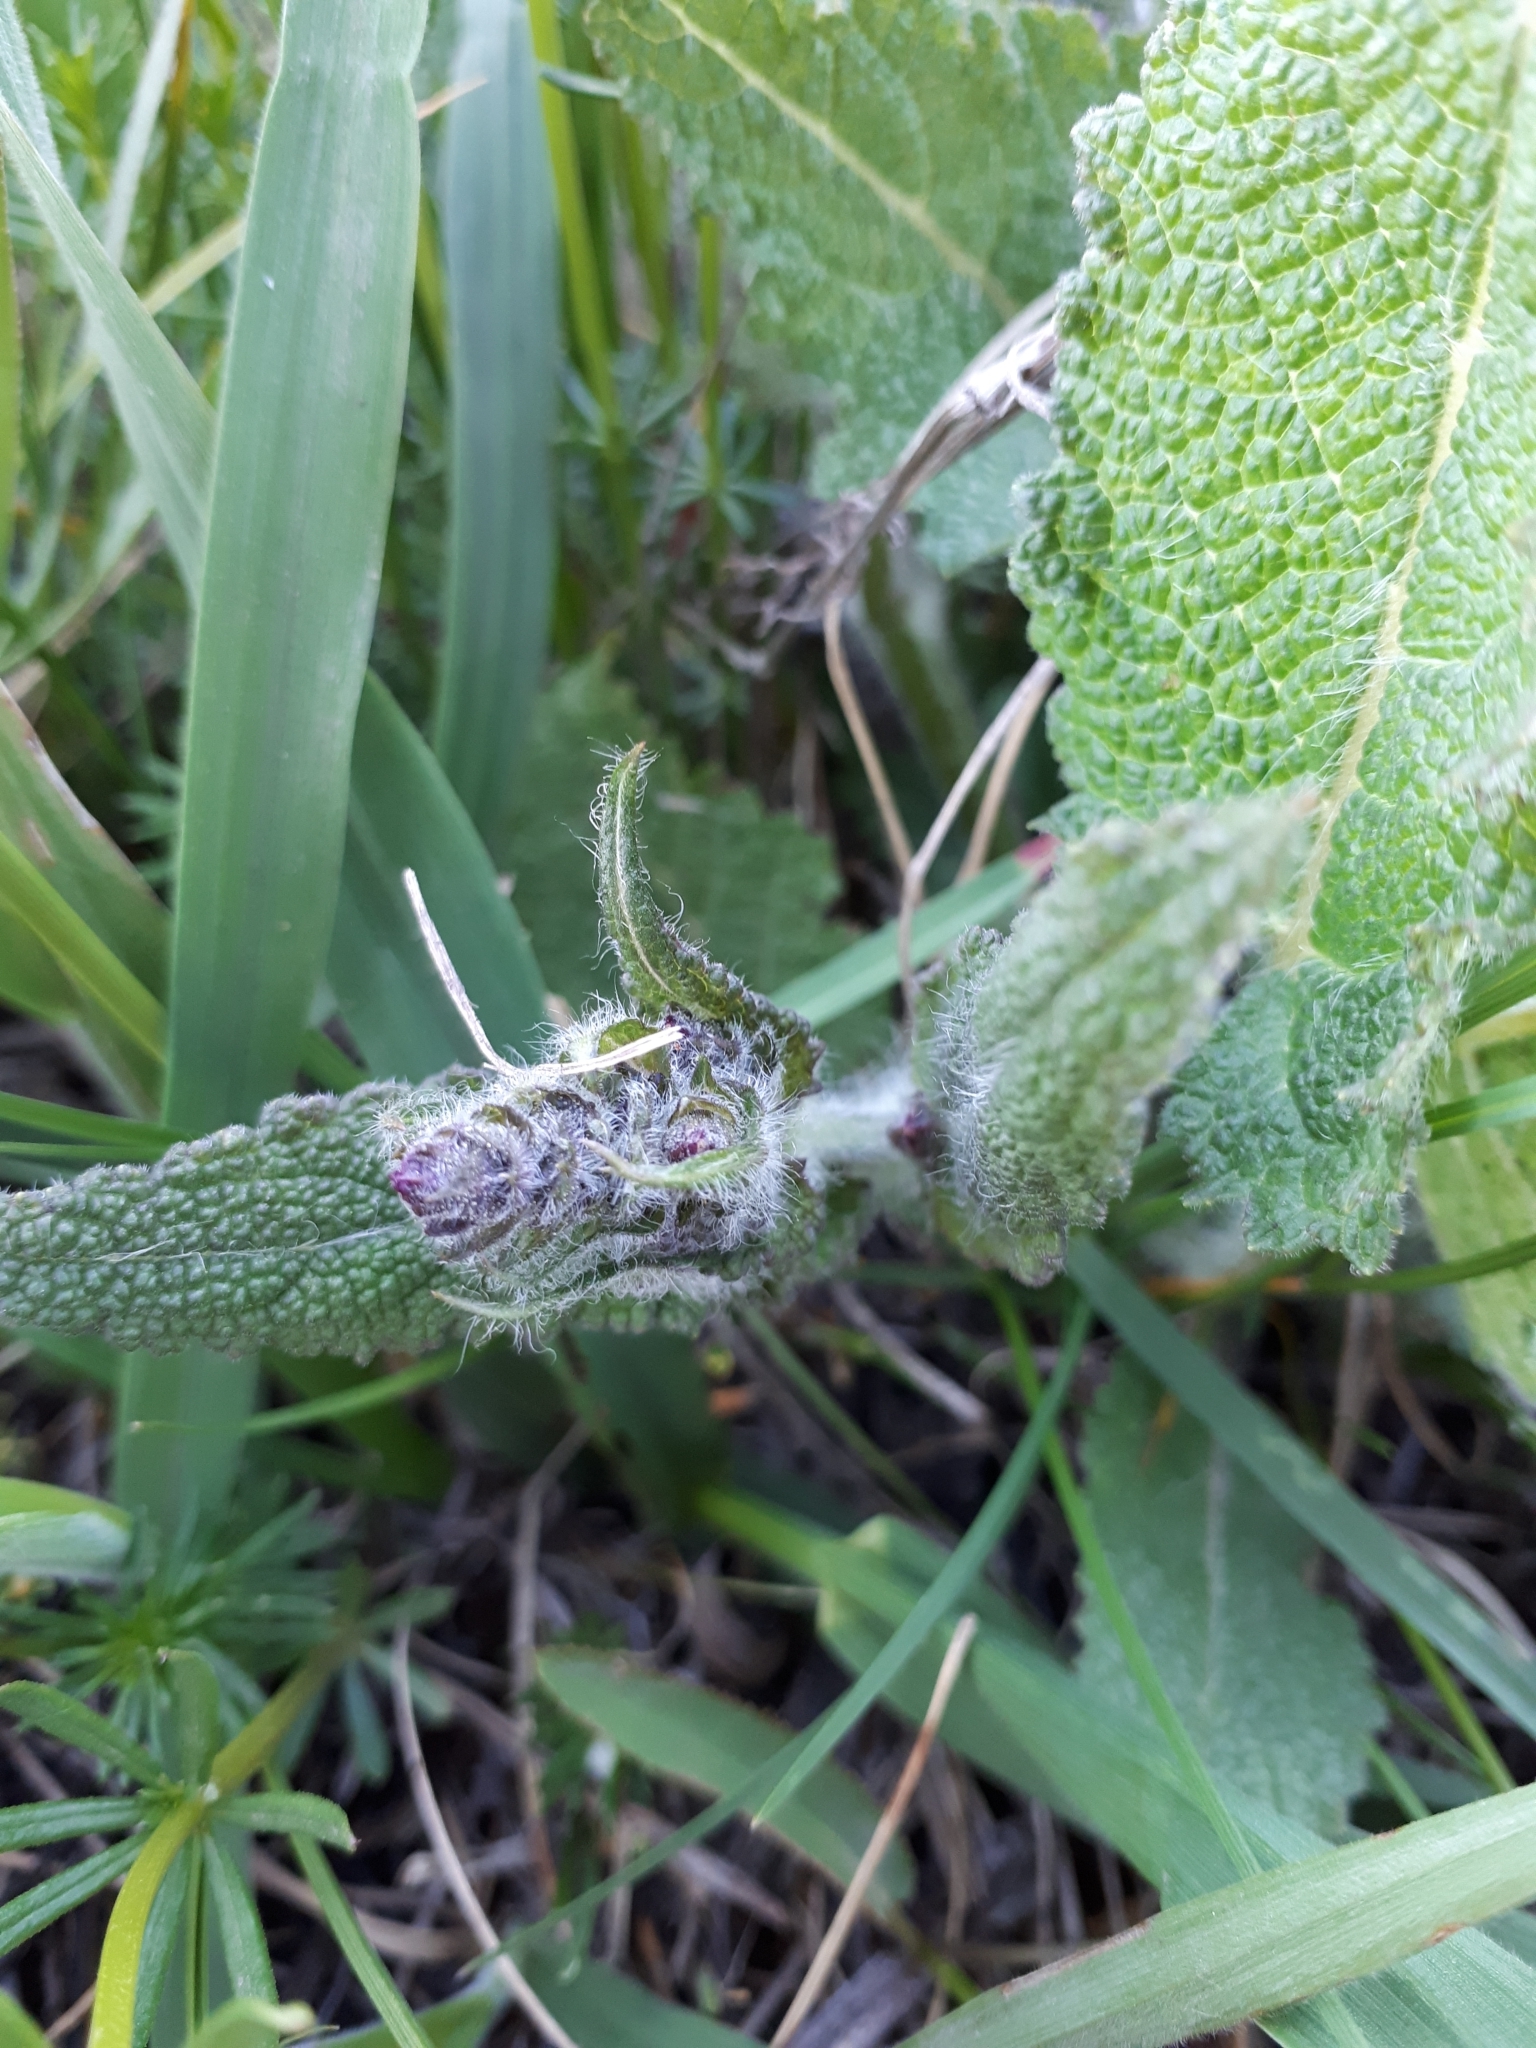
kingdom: Plantae
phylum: Tracheophyta
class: Magnoliopsida
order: Lamiales
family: Lamiaceae
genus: Salvia
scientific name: Salvia nutans
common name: Nodding sage
